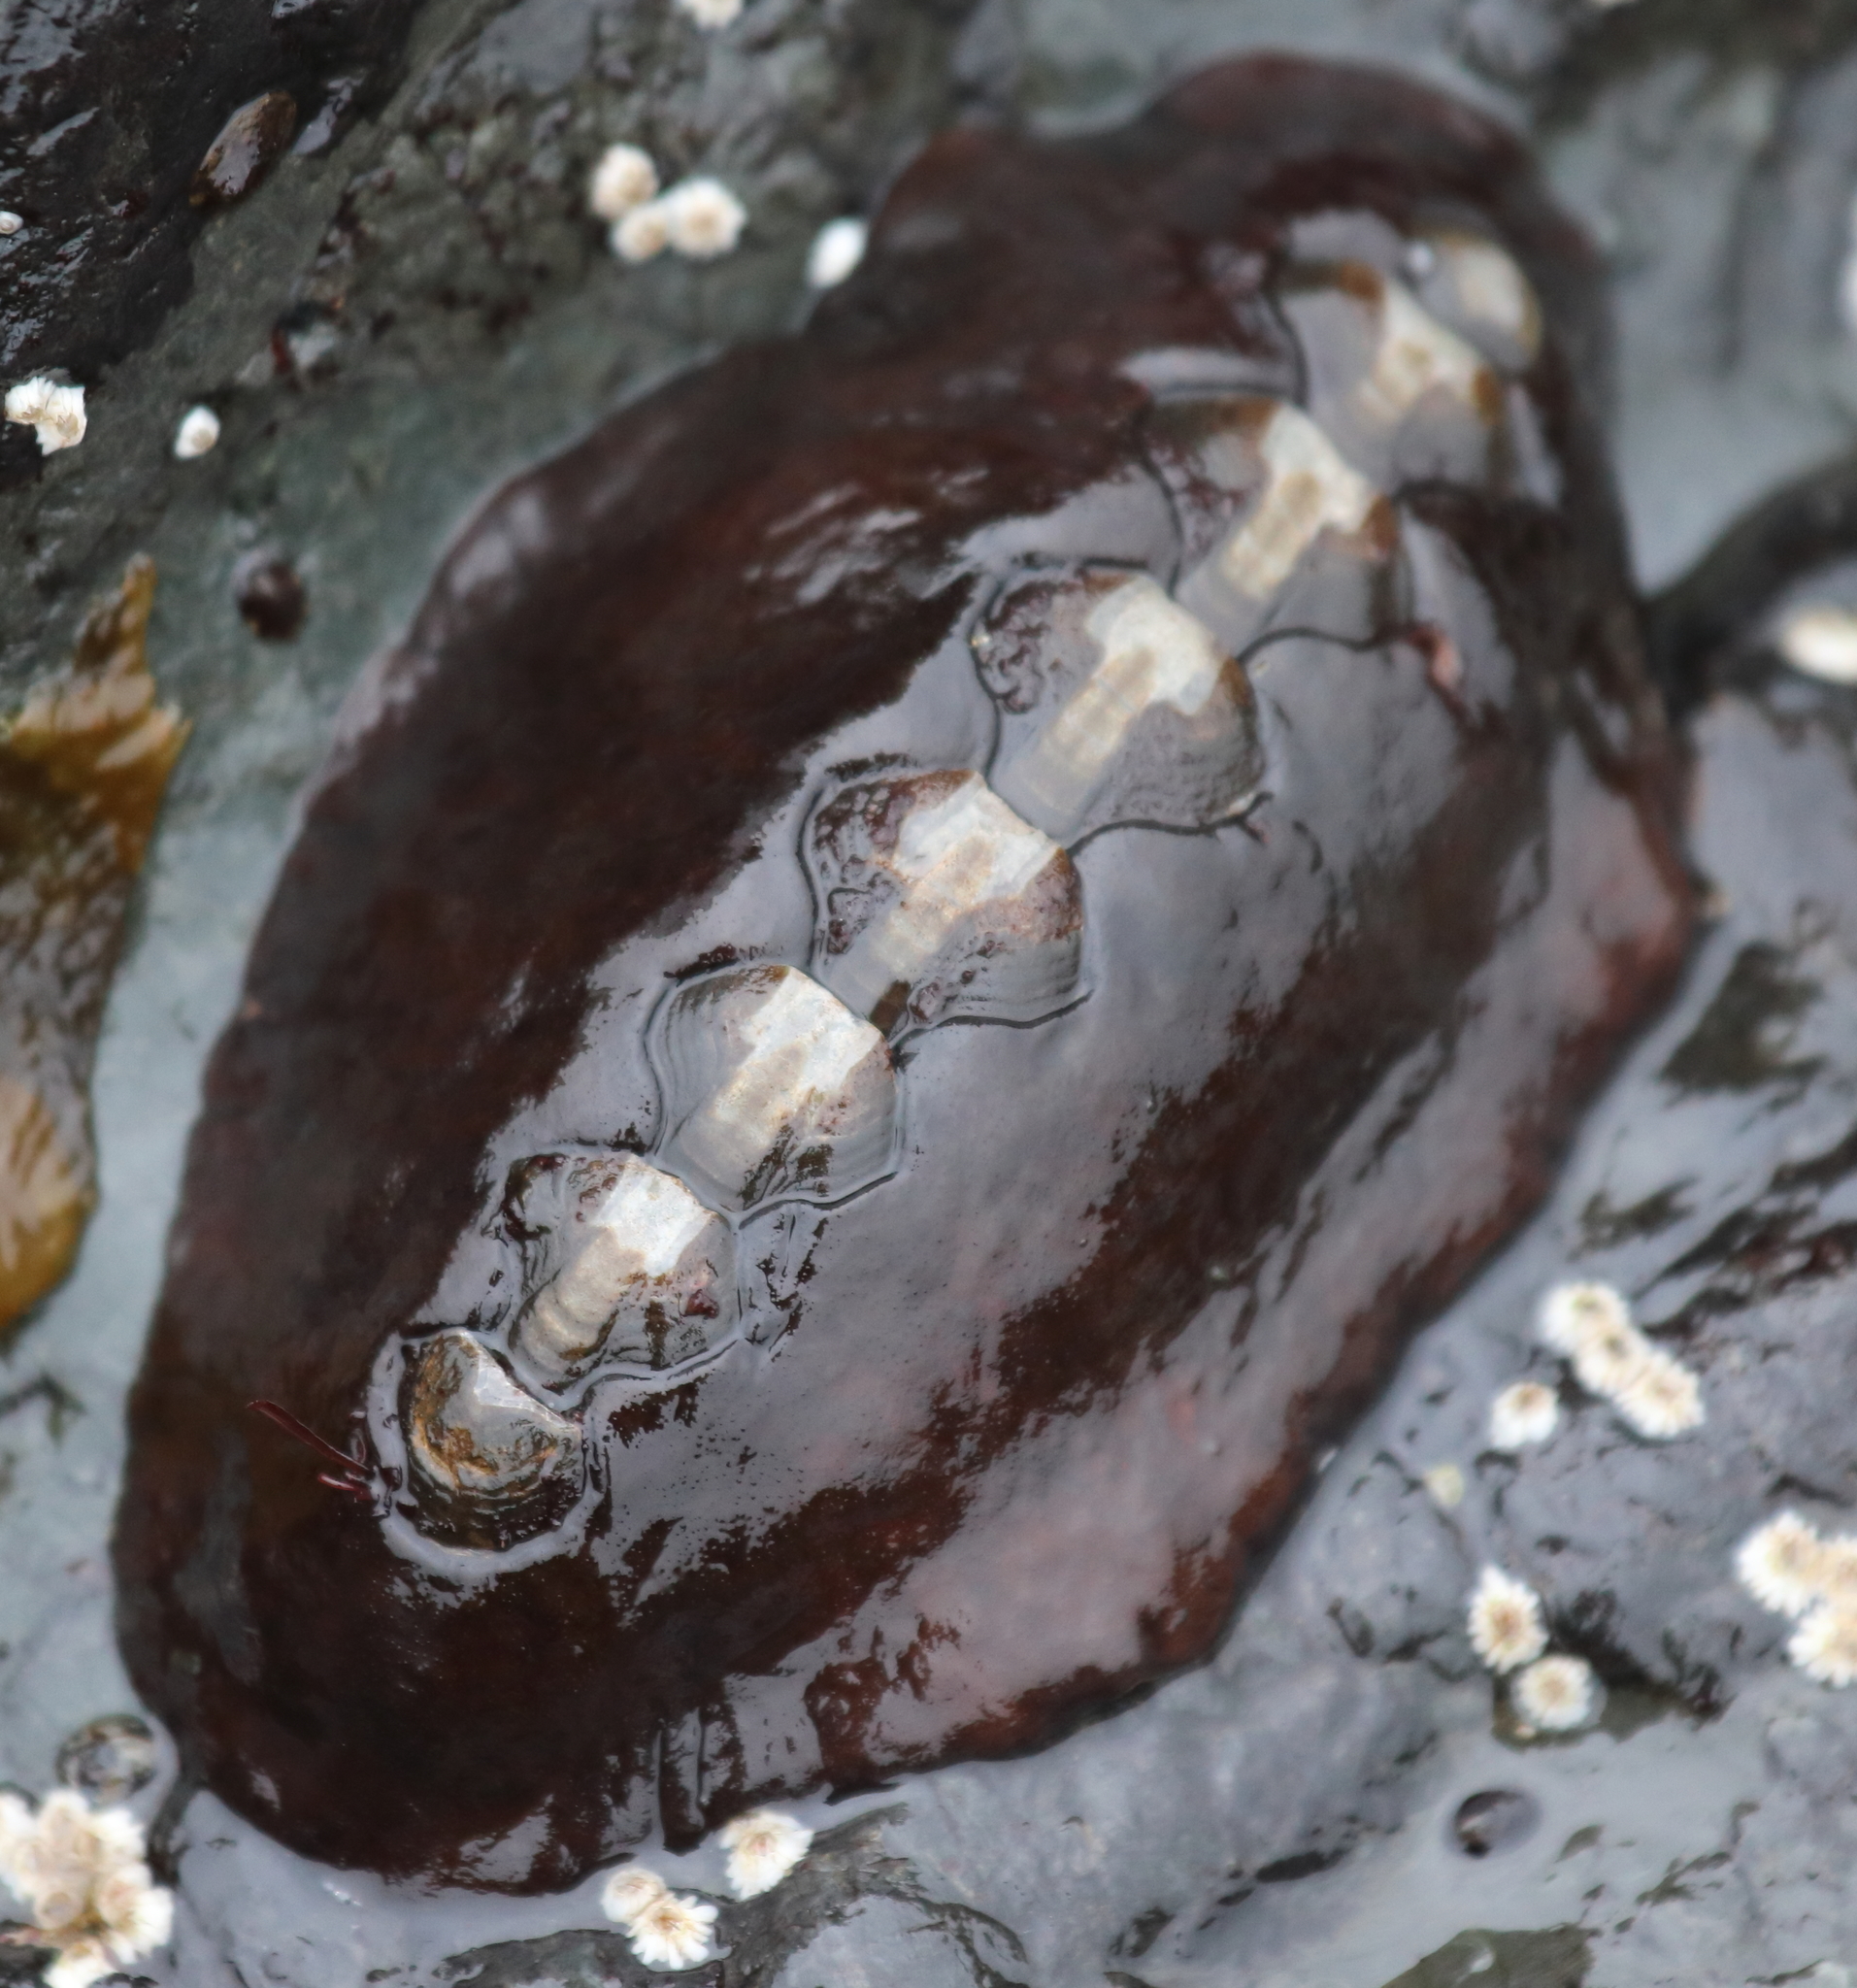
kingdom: Animalia
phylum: Mollusca
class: Polyplacophora
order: Chitonida
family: Mopaliidae
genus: Katharina
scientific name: Katharina tunicata
